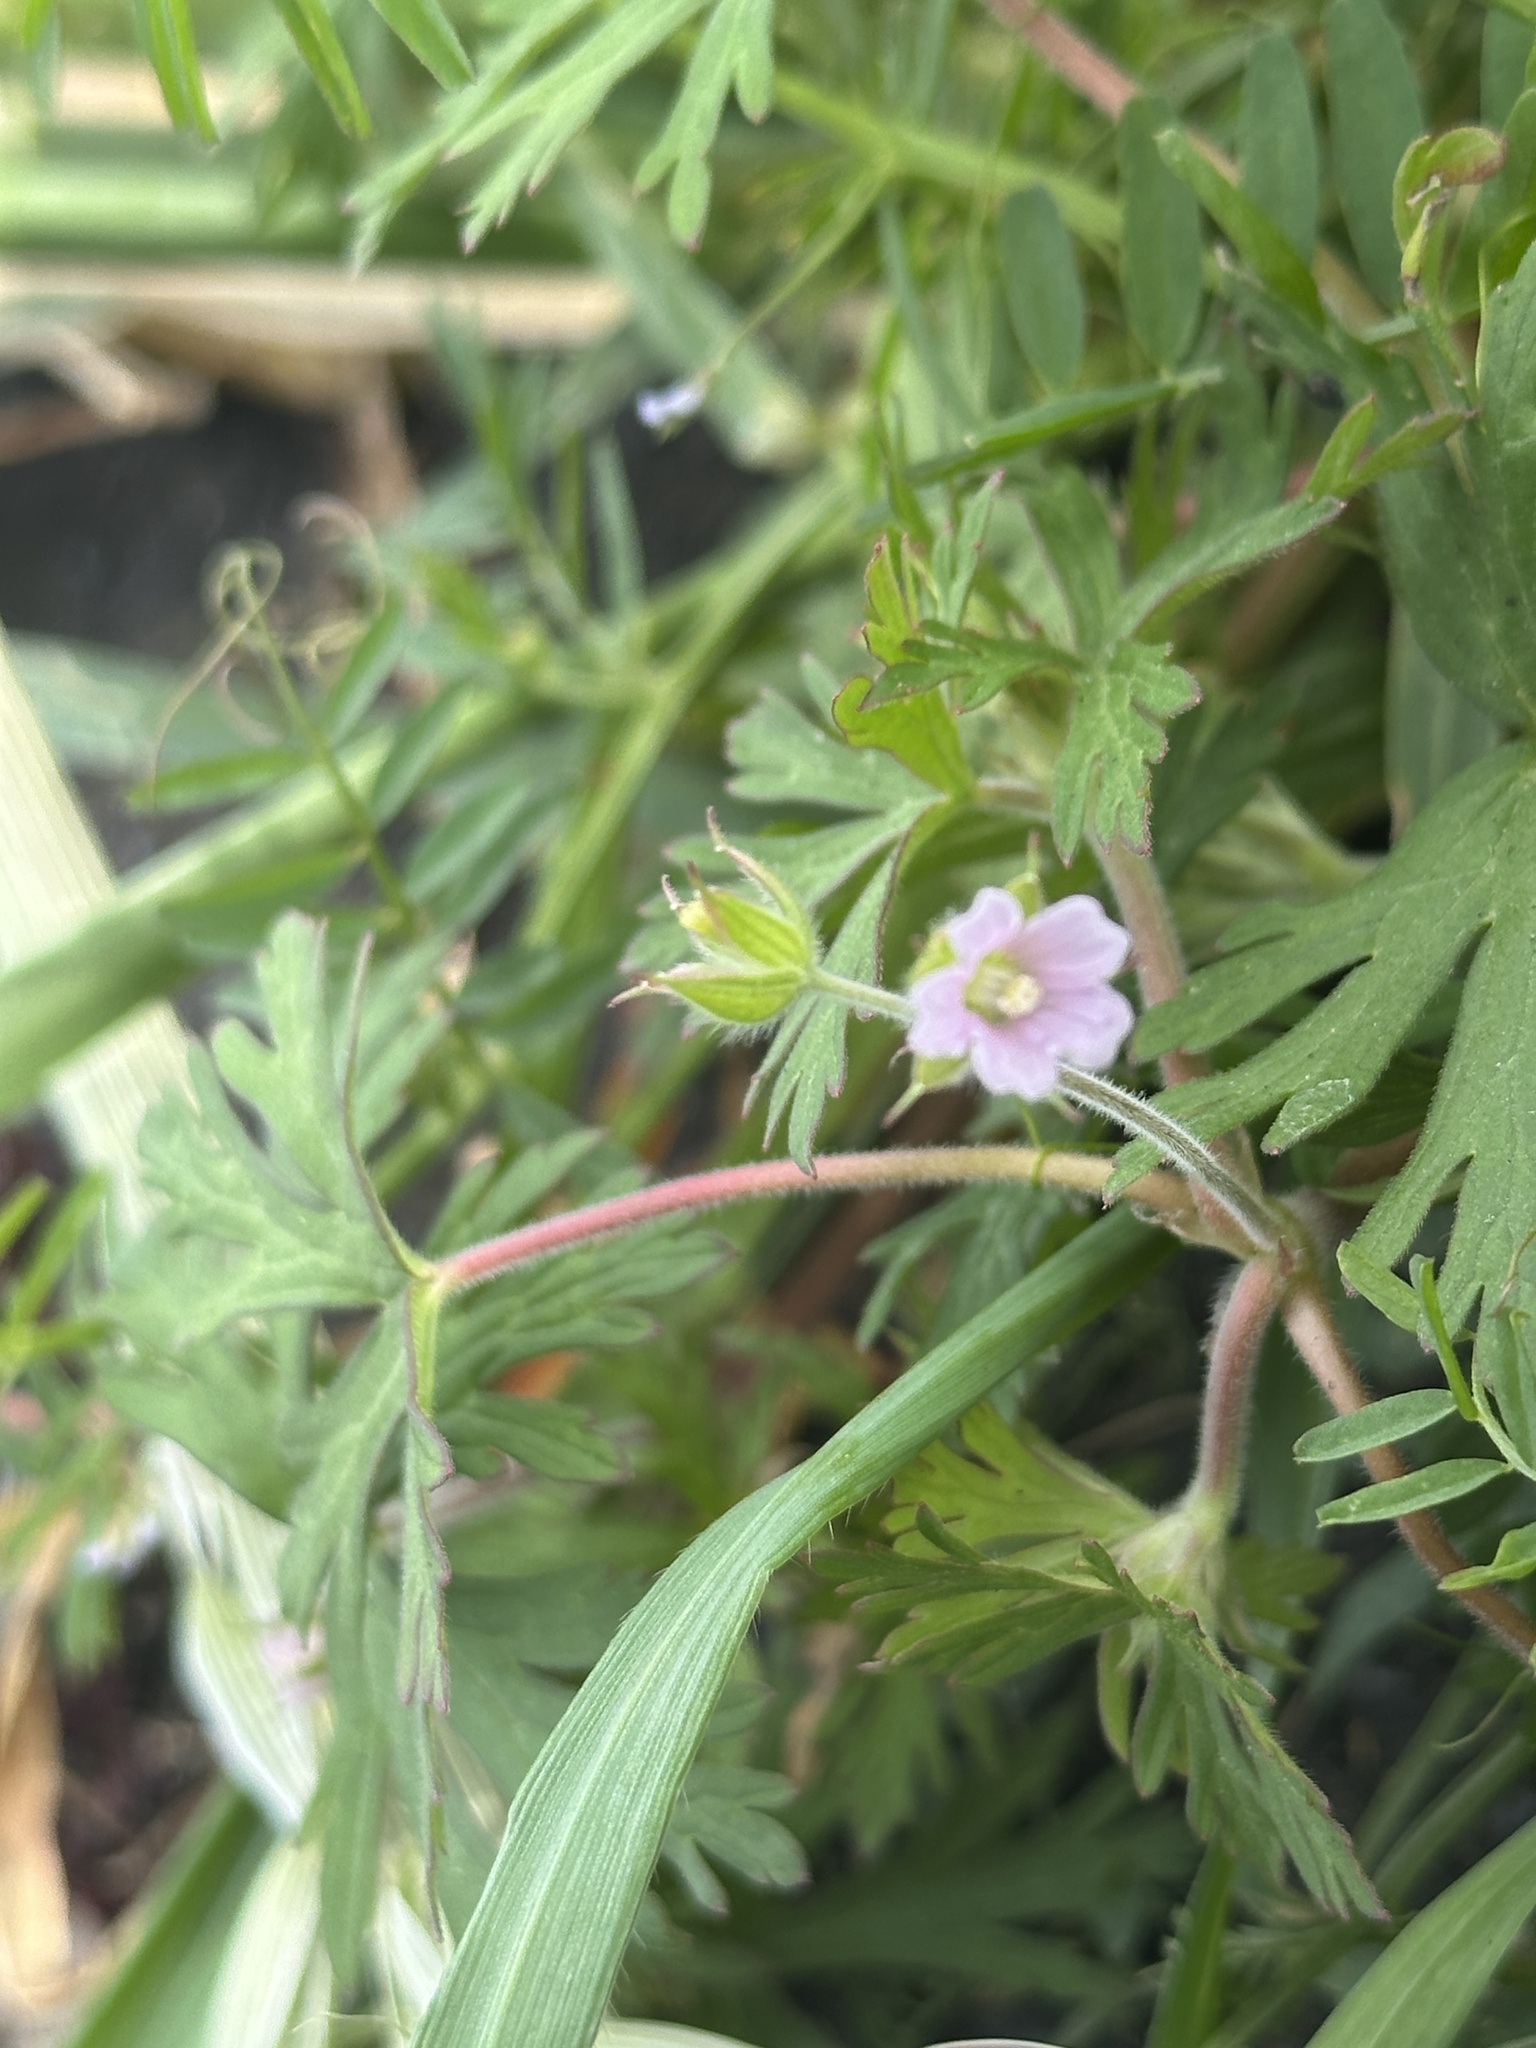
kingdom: Plantae
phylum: Tracheophyta
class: Magnoliopsida
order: Geraniales
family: Geraniaceae
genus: Geranium
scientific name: Geranium carolinianum
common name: Carolina crane's-bill
